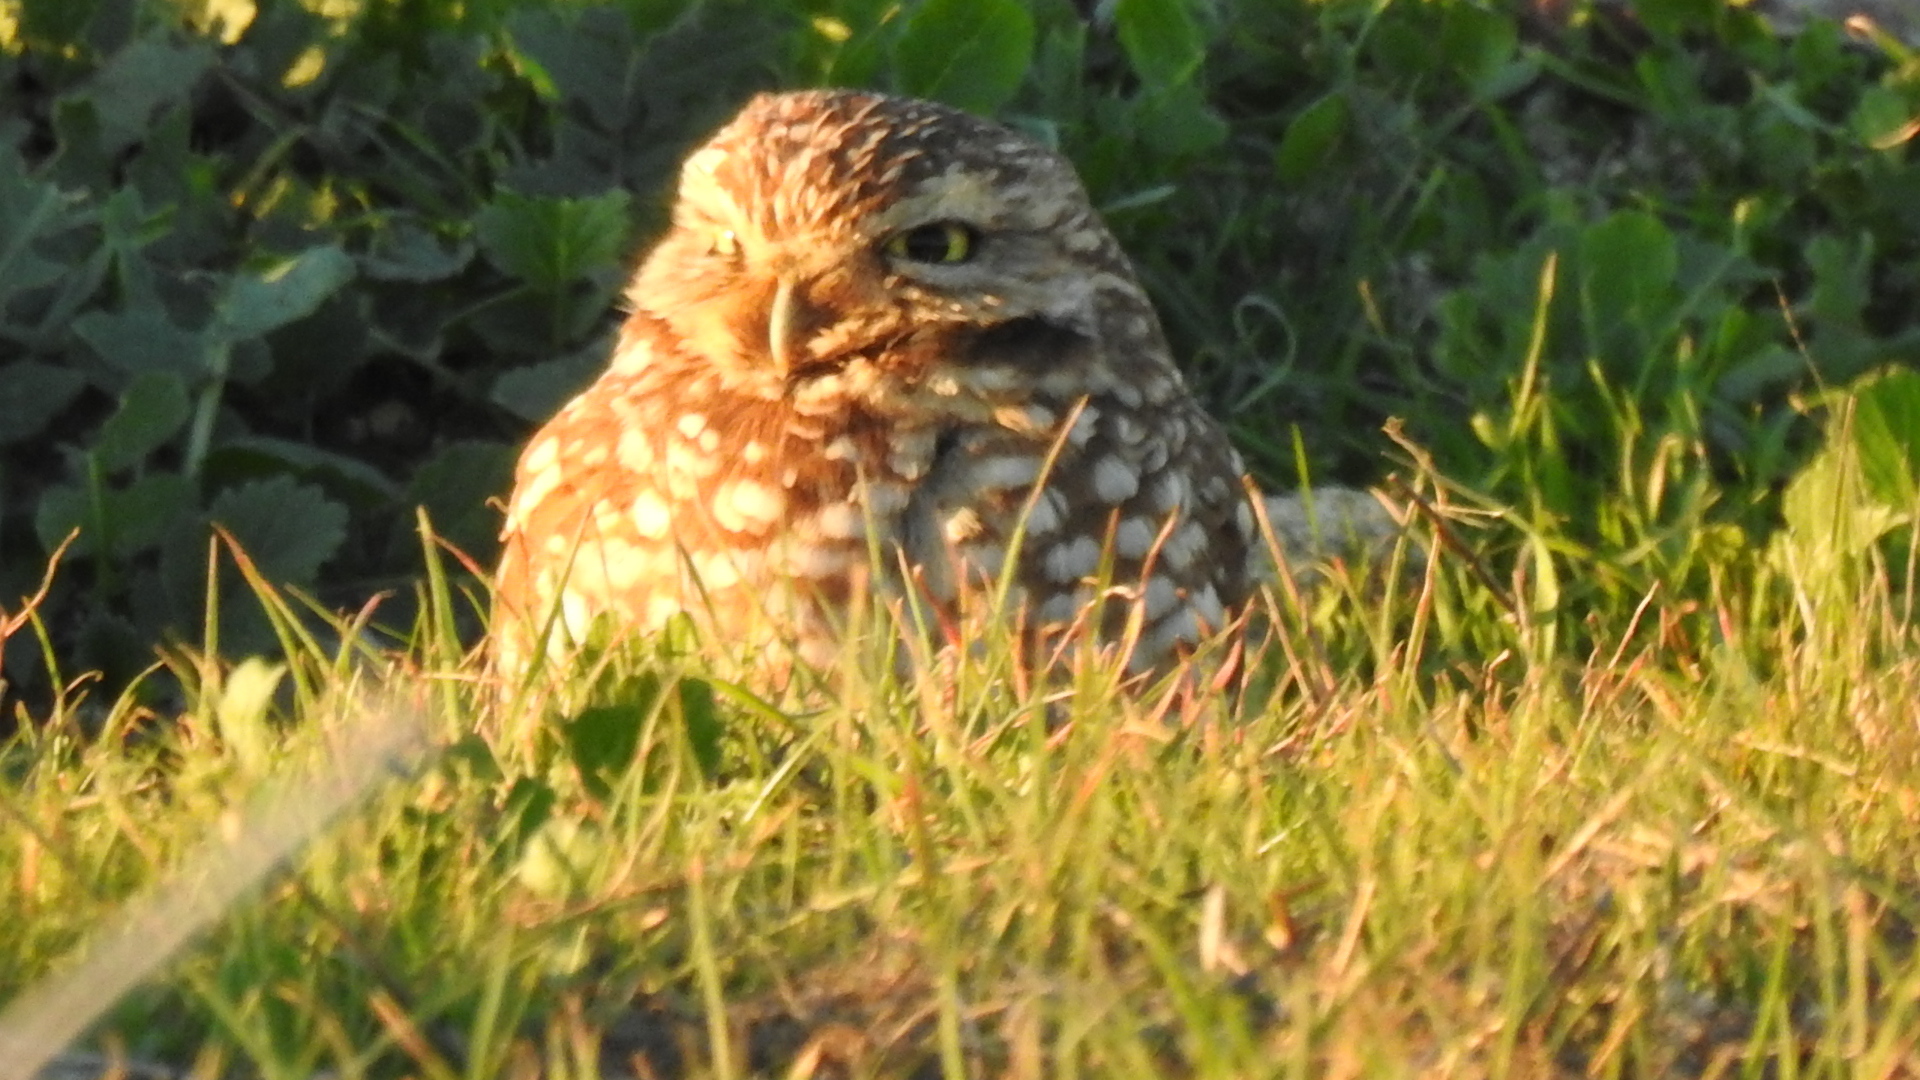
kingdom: Animalia
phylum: Chordata
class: Aves
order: Strigiformes
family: Strigidae
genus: Athene
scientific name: Athene cunicularia
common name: Burrowing owl
